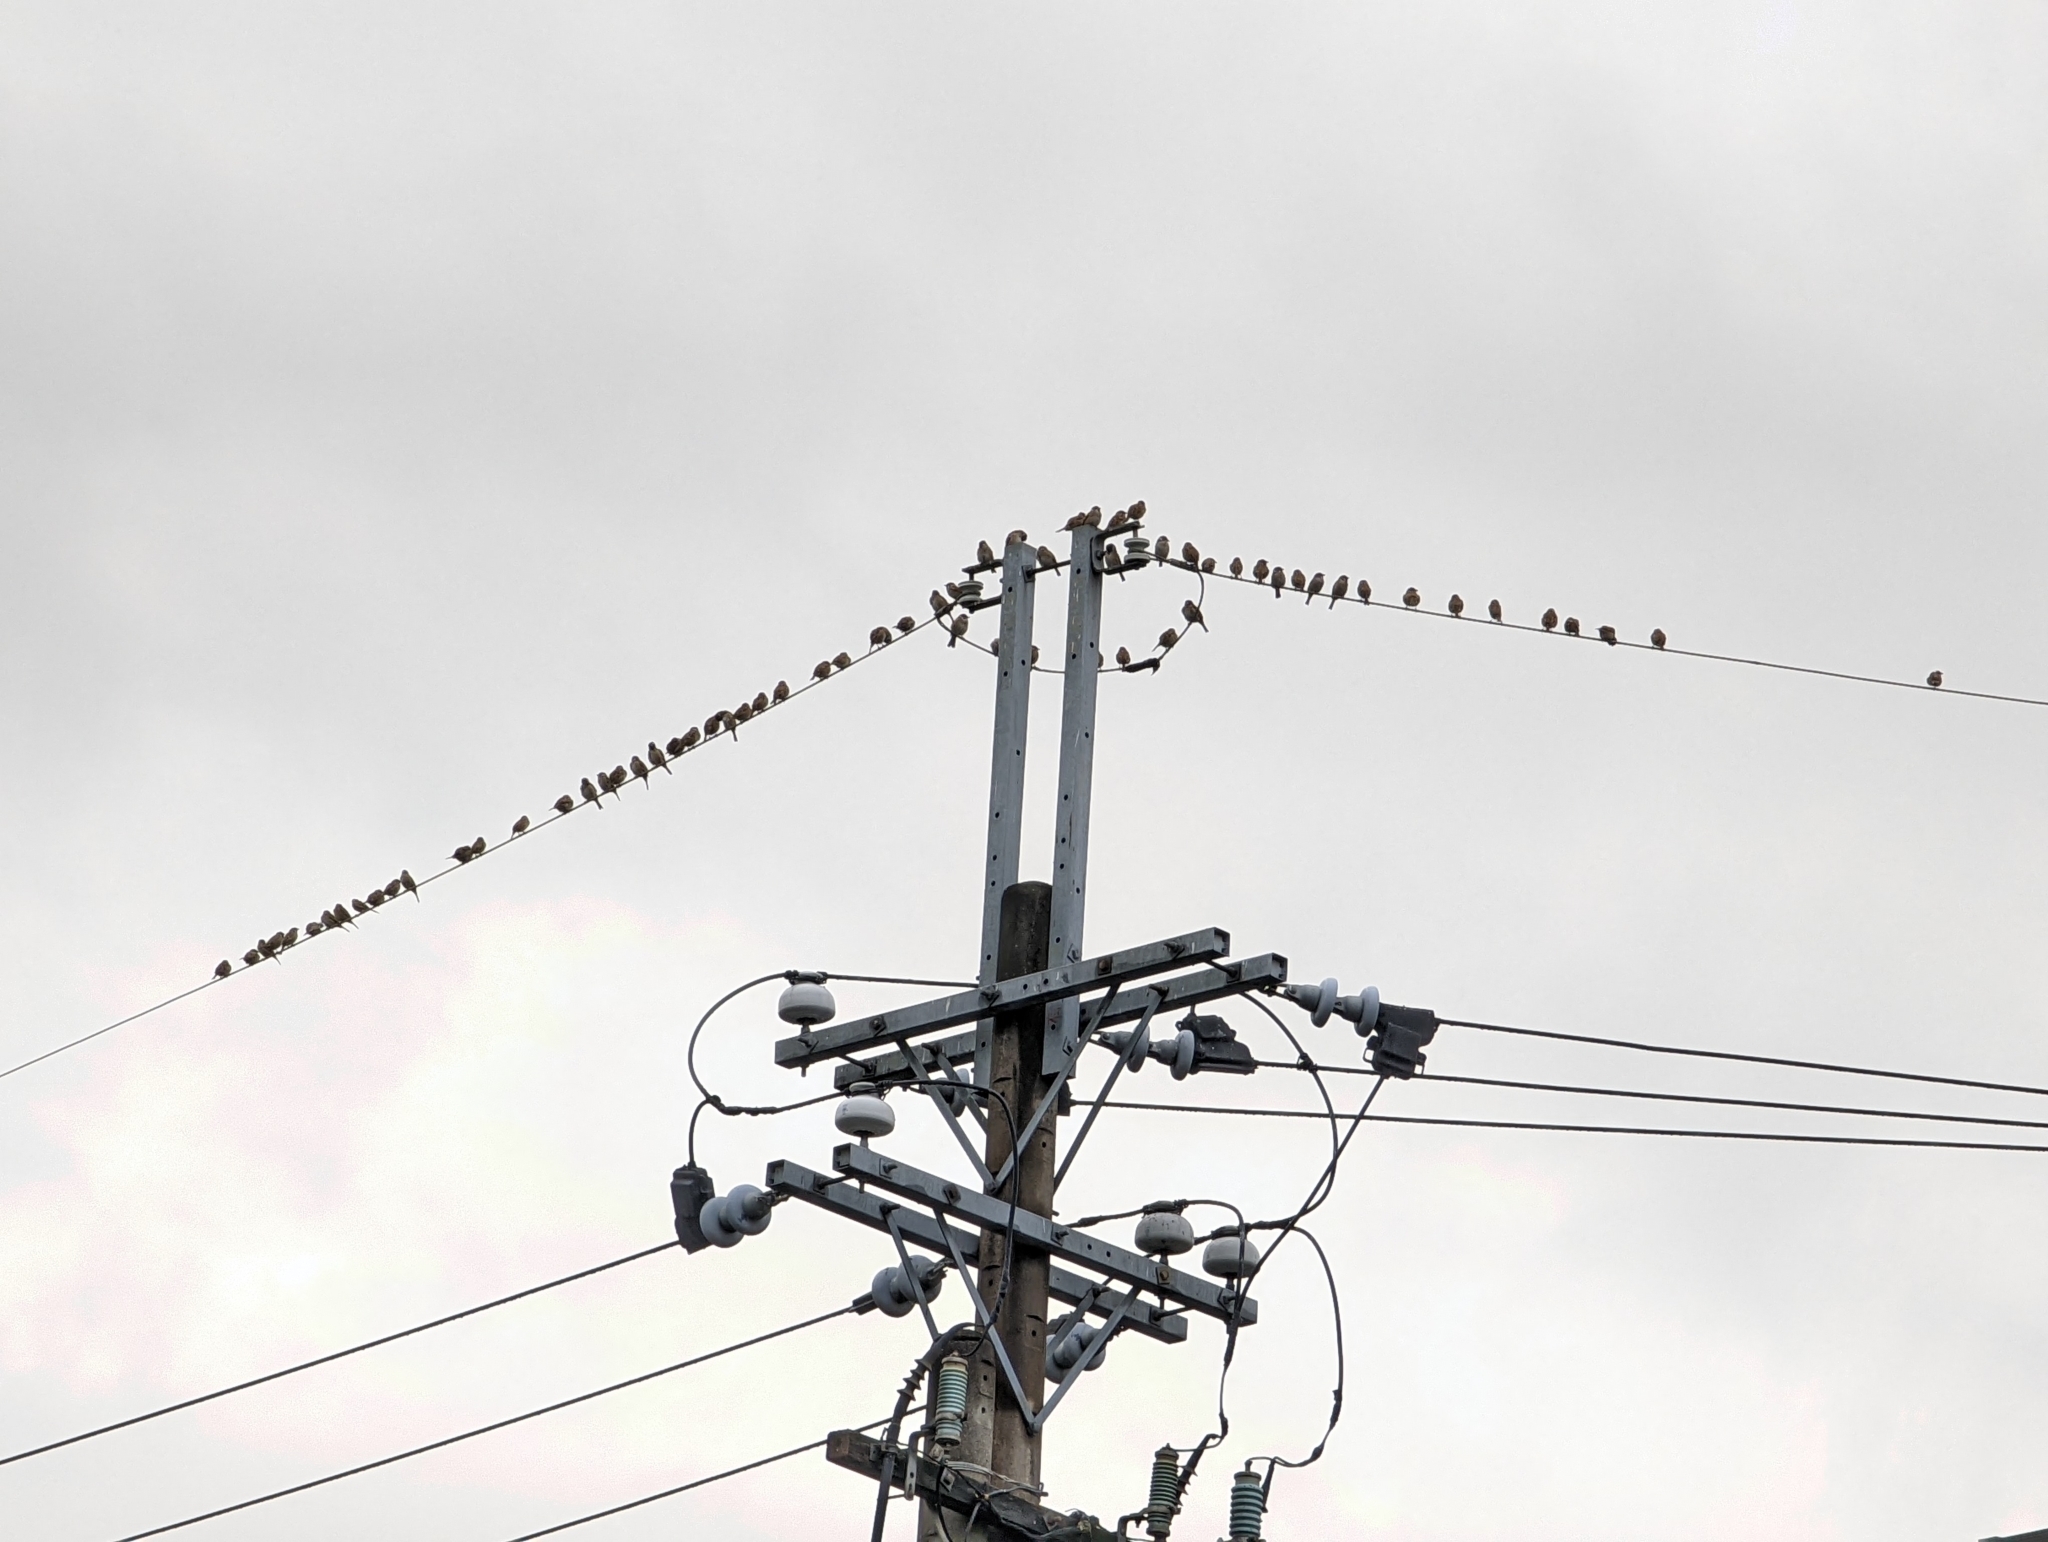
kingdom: Animalia
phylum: Chordata
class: Aves
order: Passeriformes
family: Passeridae
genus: Passer
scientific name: Passer montanus
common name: Eurasian tree sparrow
